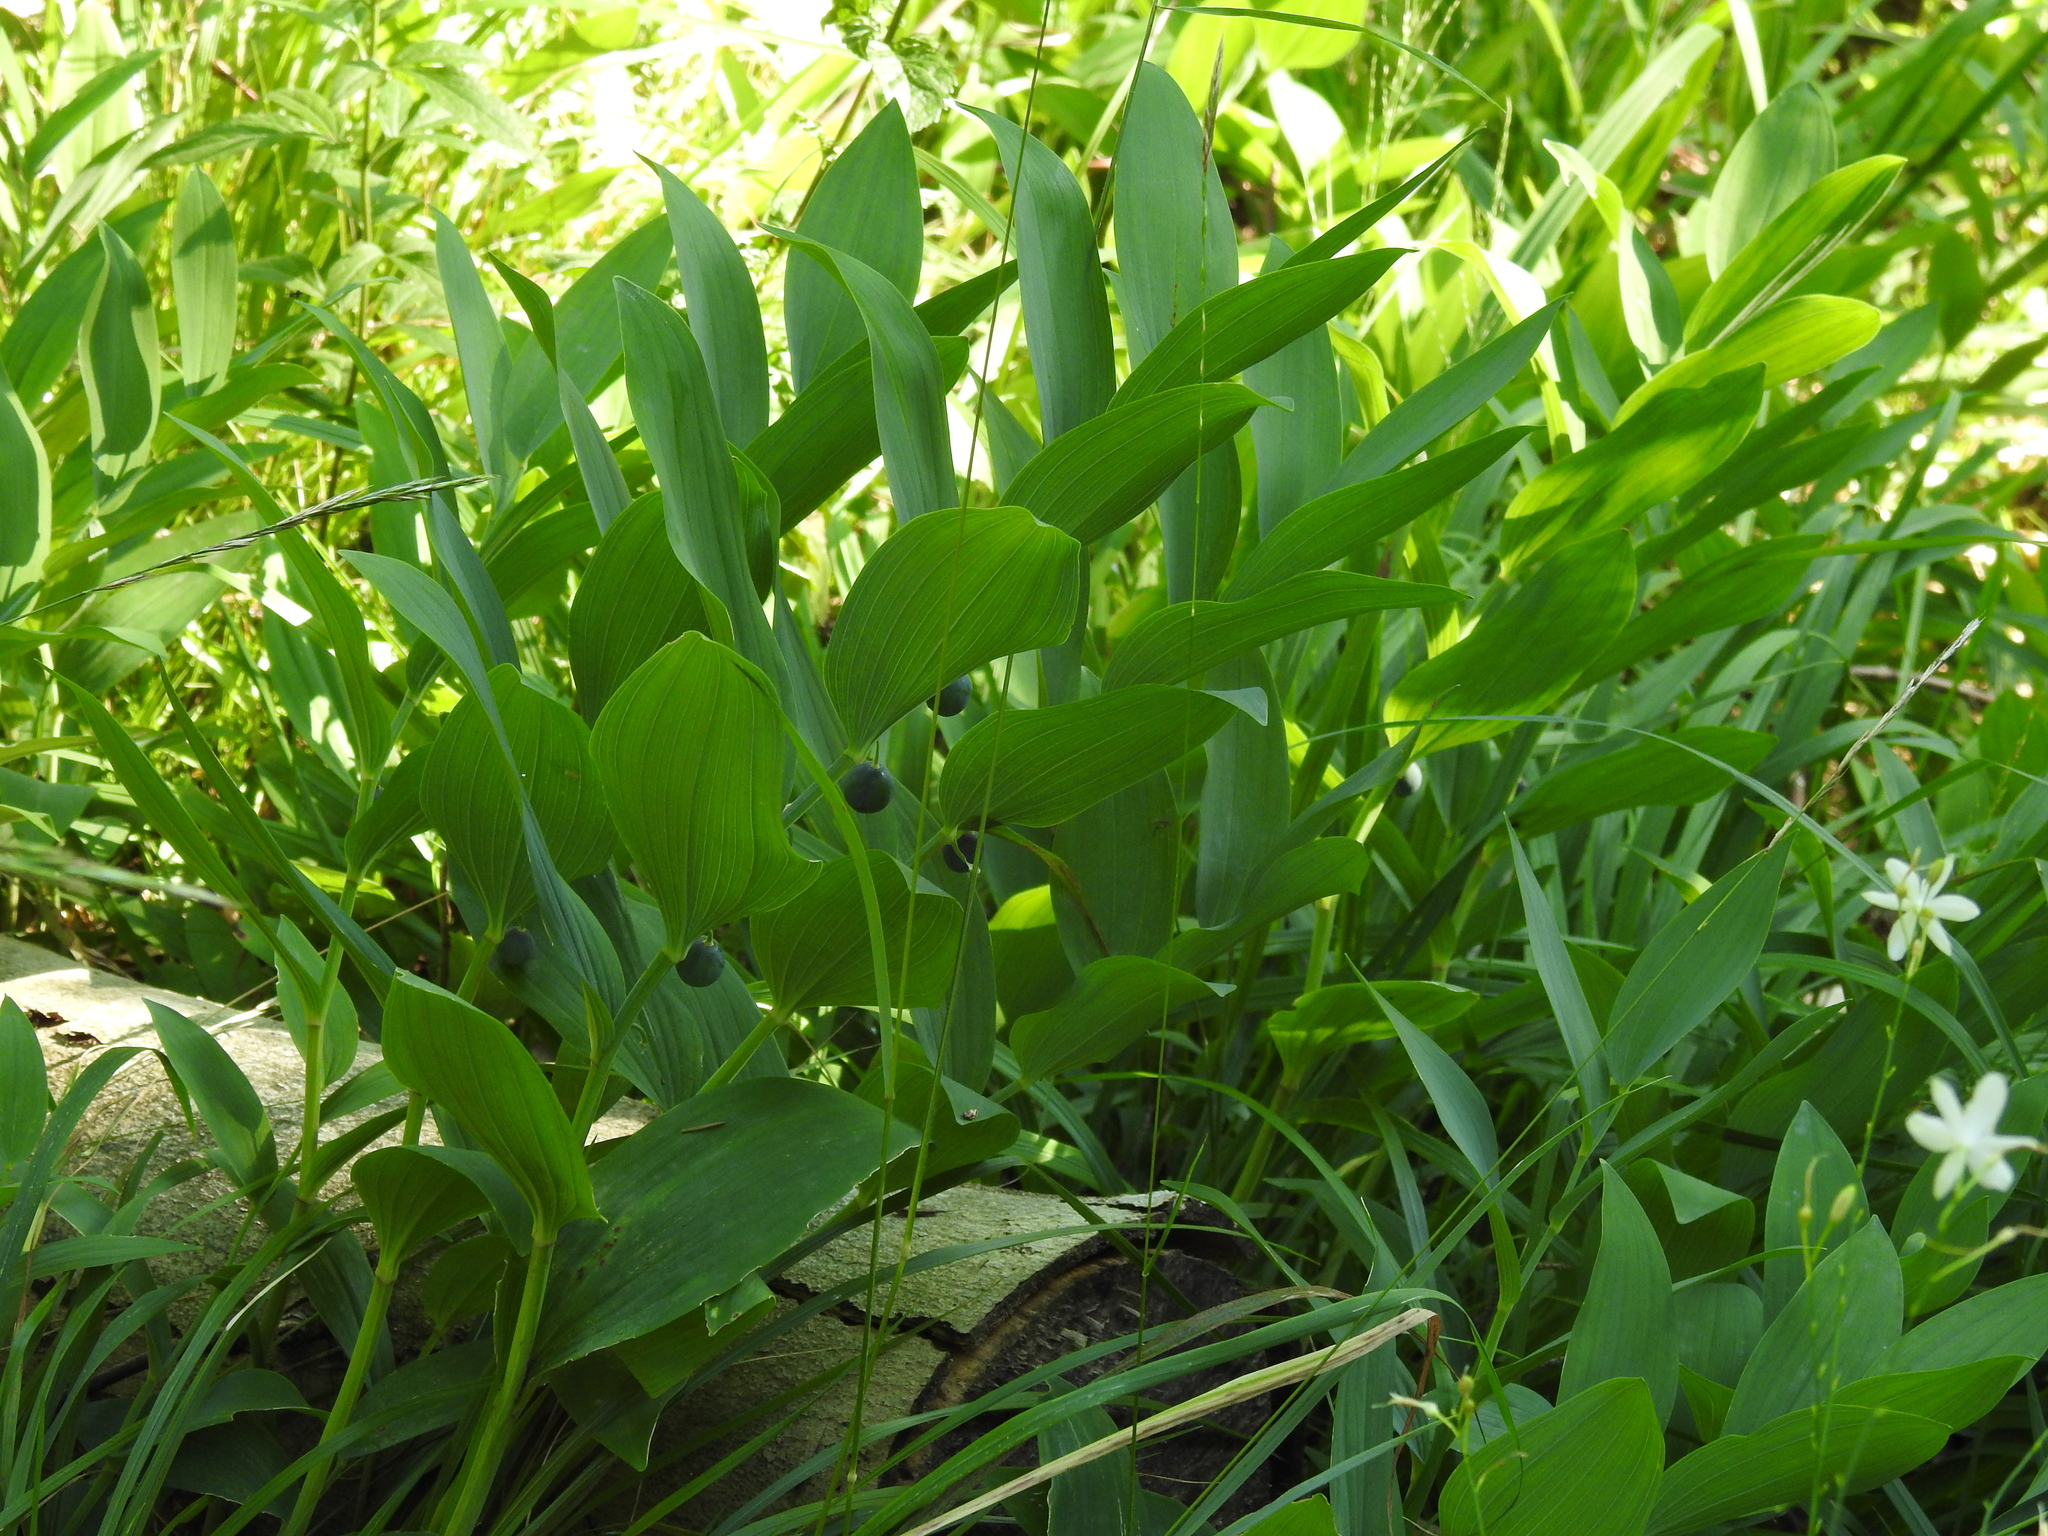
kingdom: Plantae
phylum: Tracheophyta
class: Liliopsida
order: Asparagales
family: Asparagaceae
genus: Polygonatum
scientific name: Polygonatum odoratum
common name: Angular solomon's-seal
